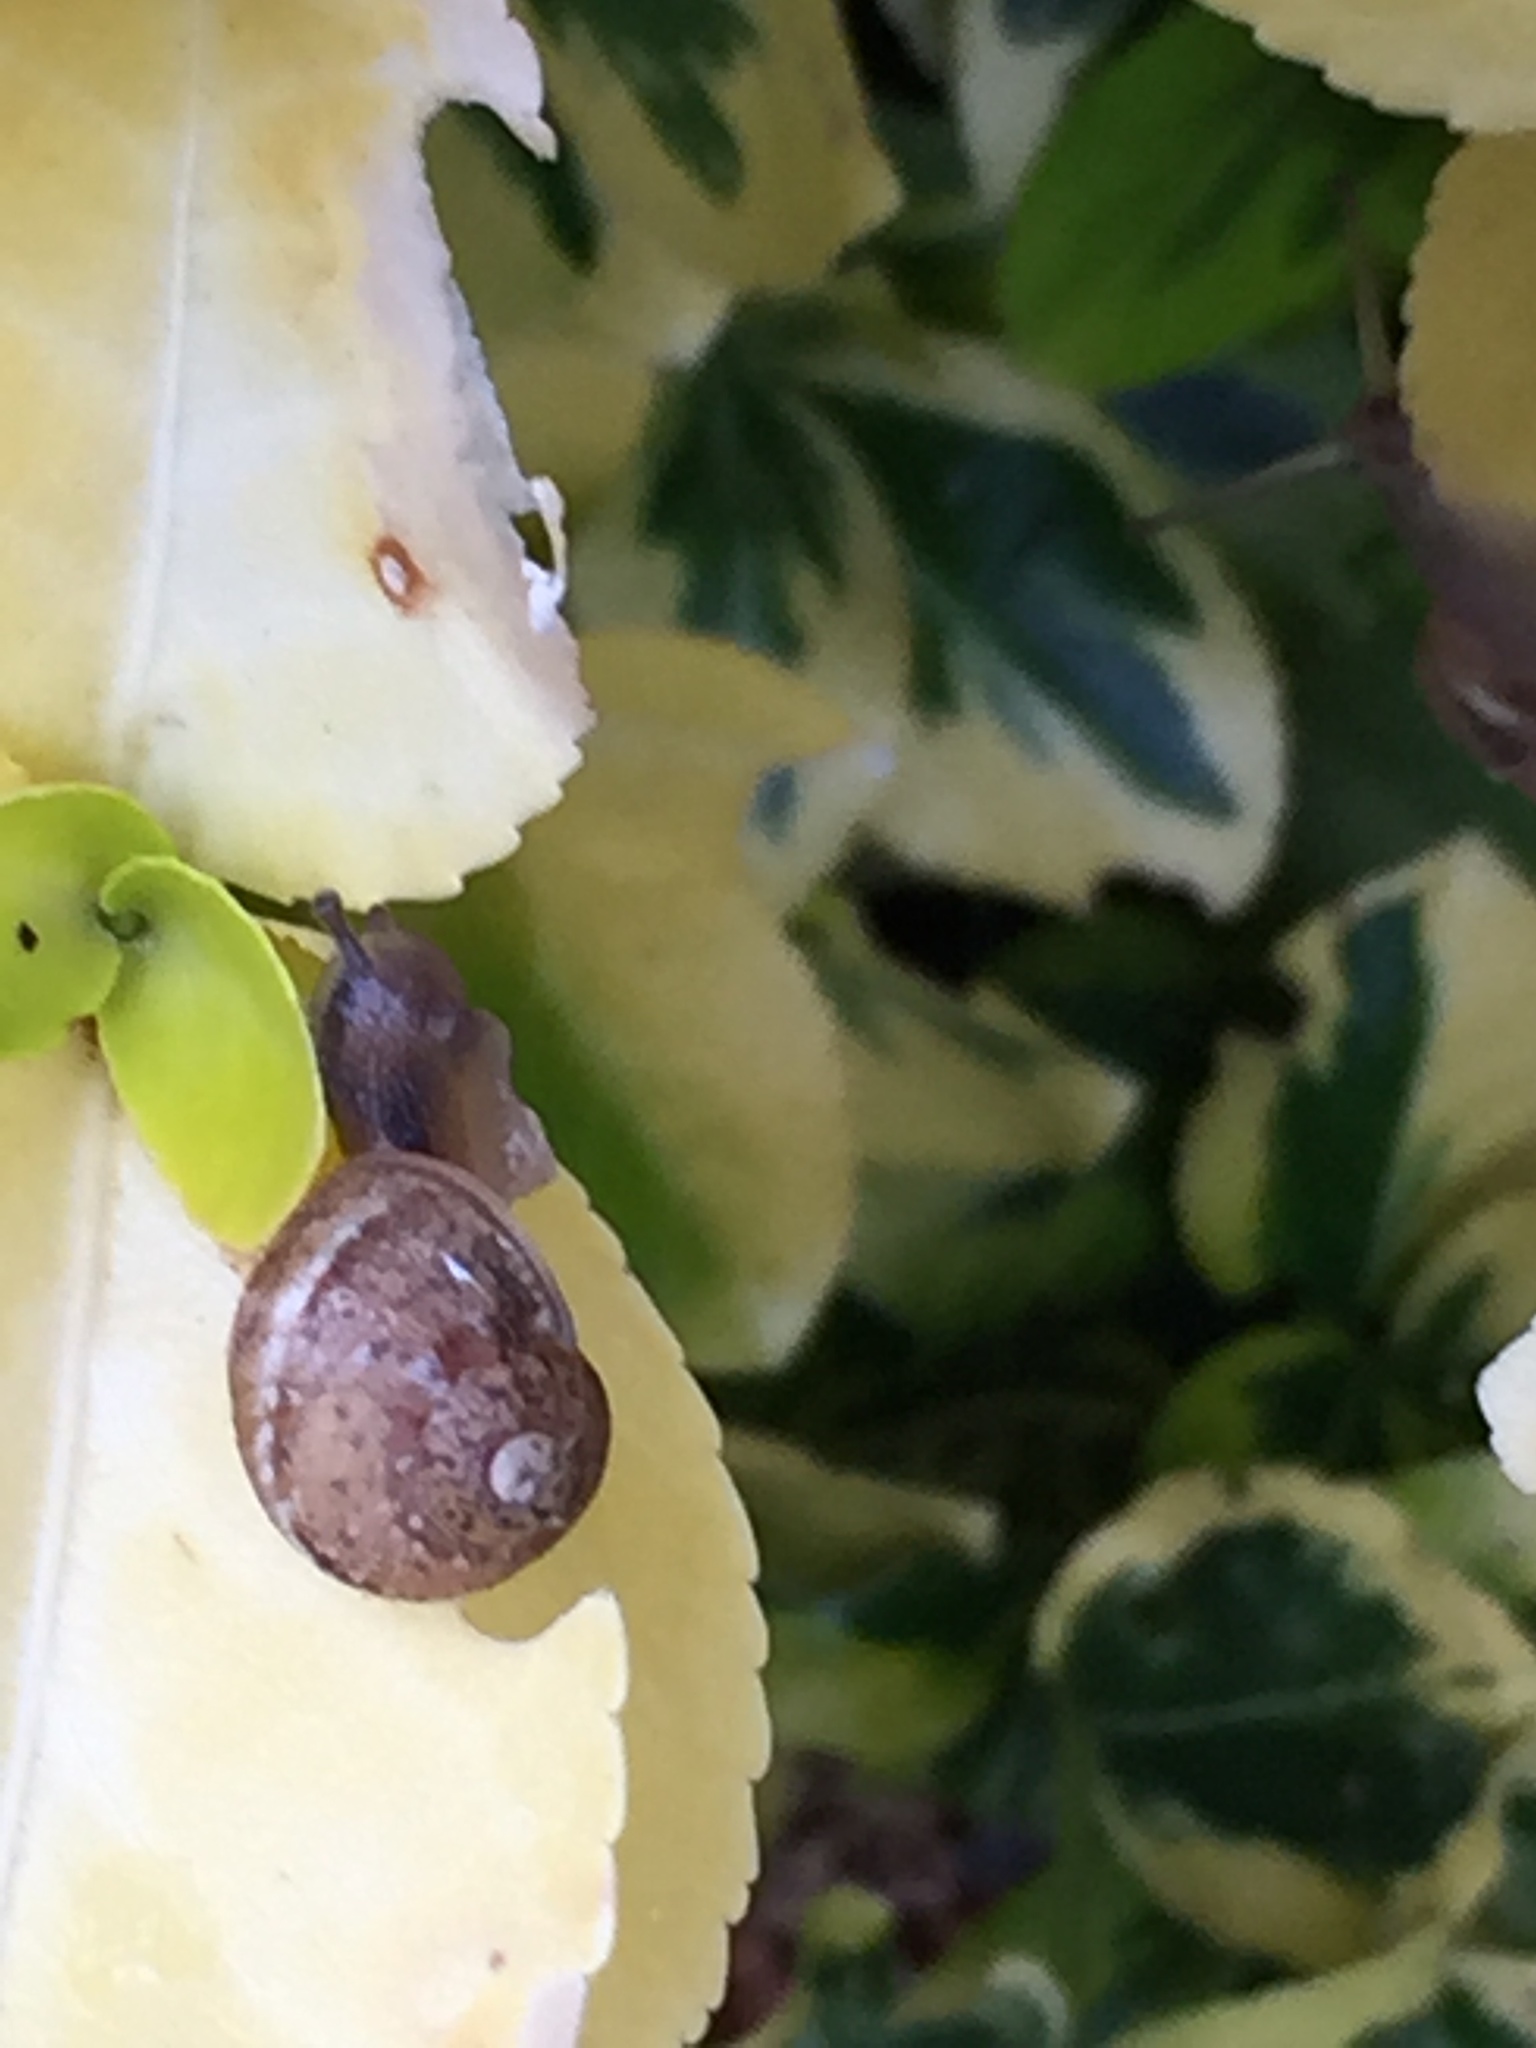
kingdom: Animalia
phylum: Mollusca
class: Gastropoda
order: Stylommatophora
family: Helicidae
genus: Cornu
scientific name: Cornu aspersum
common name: Brown garden snail
